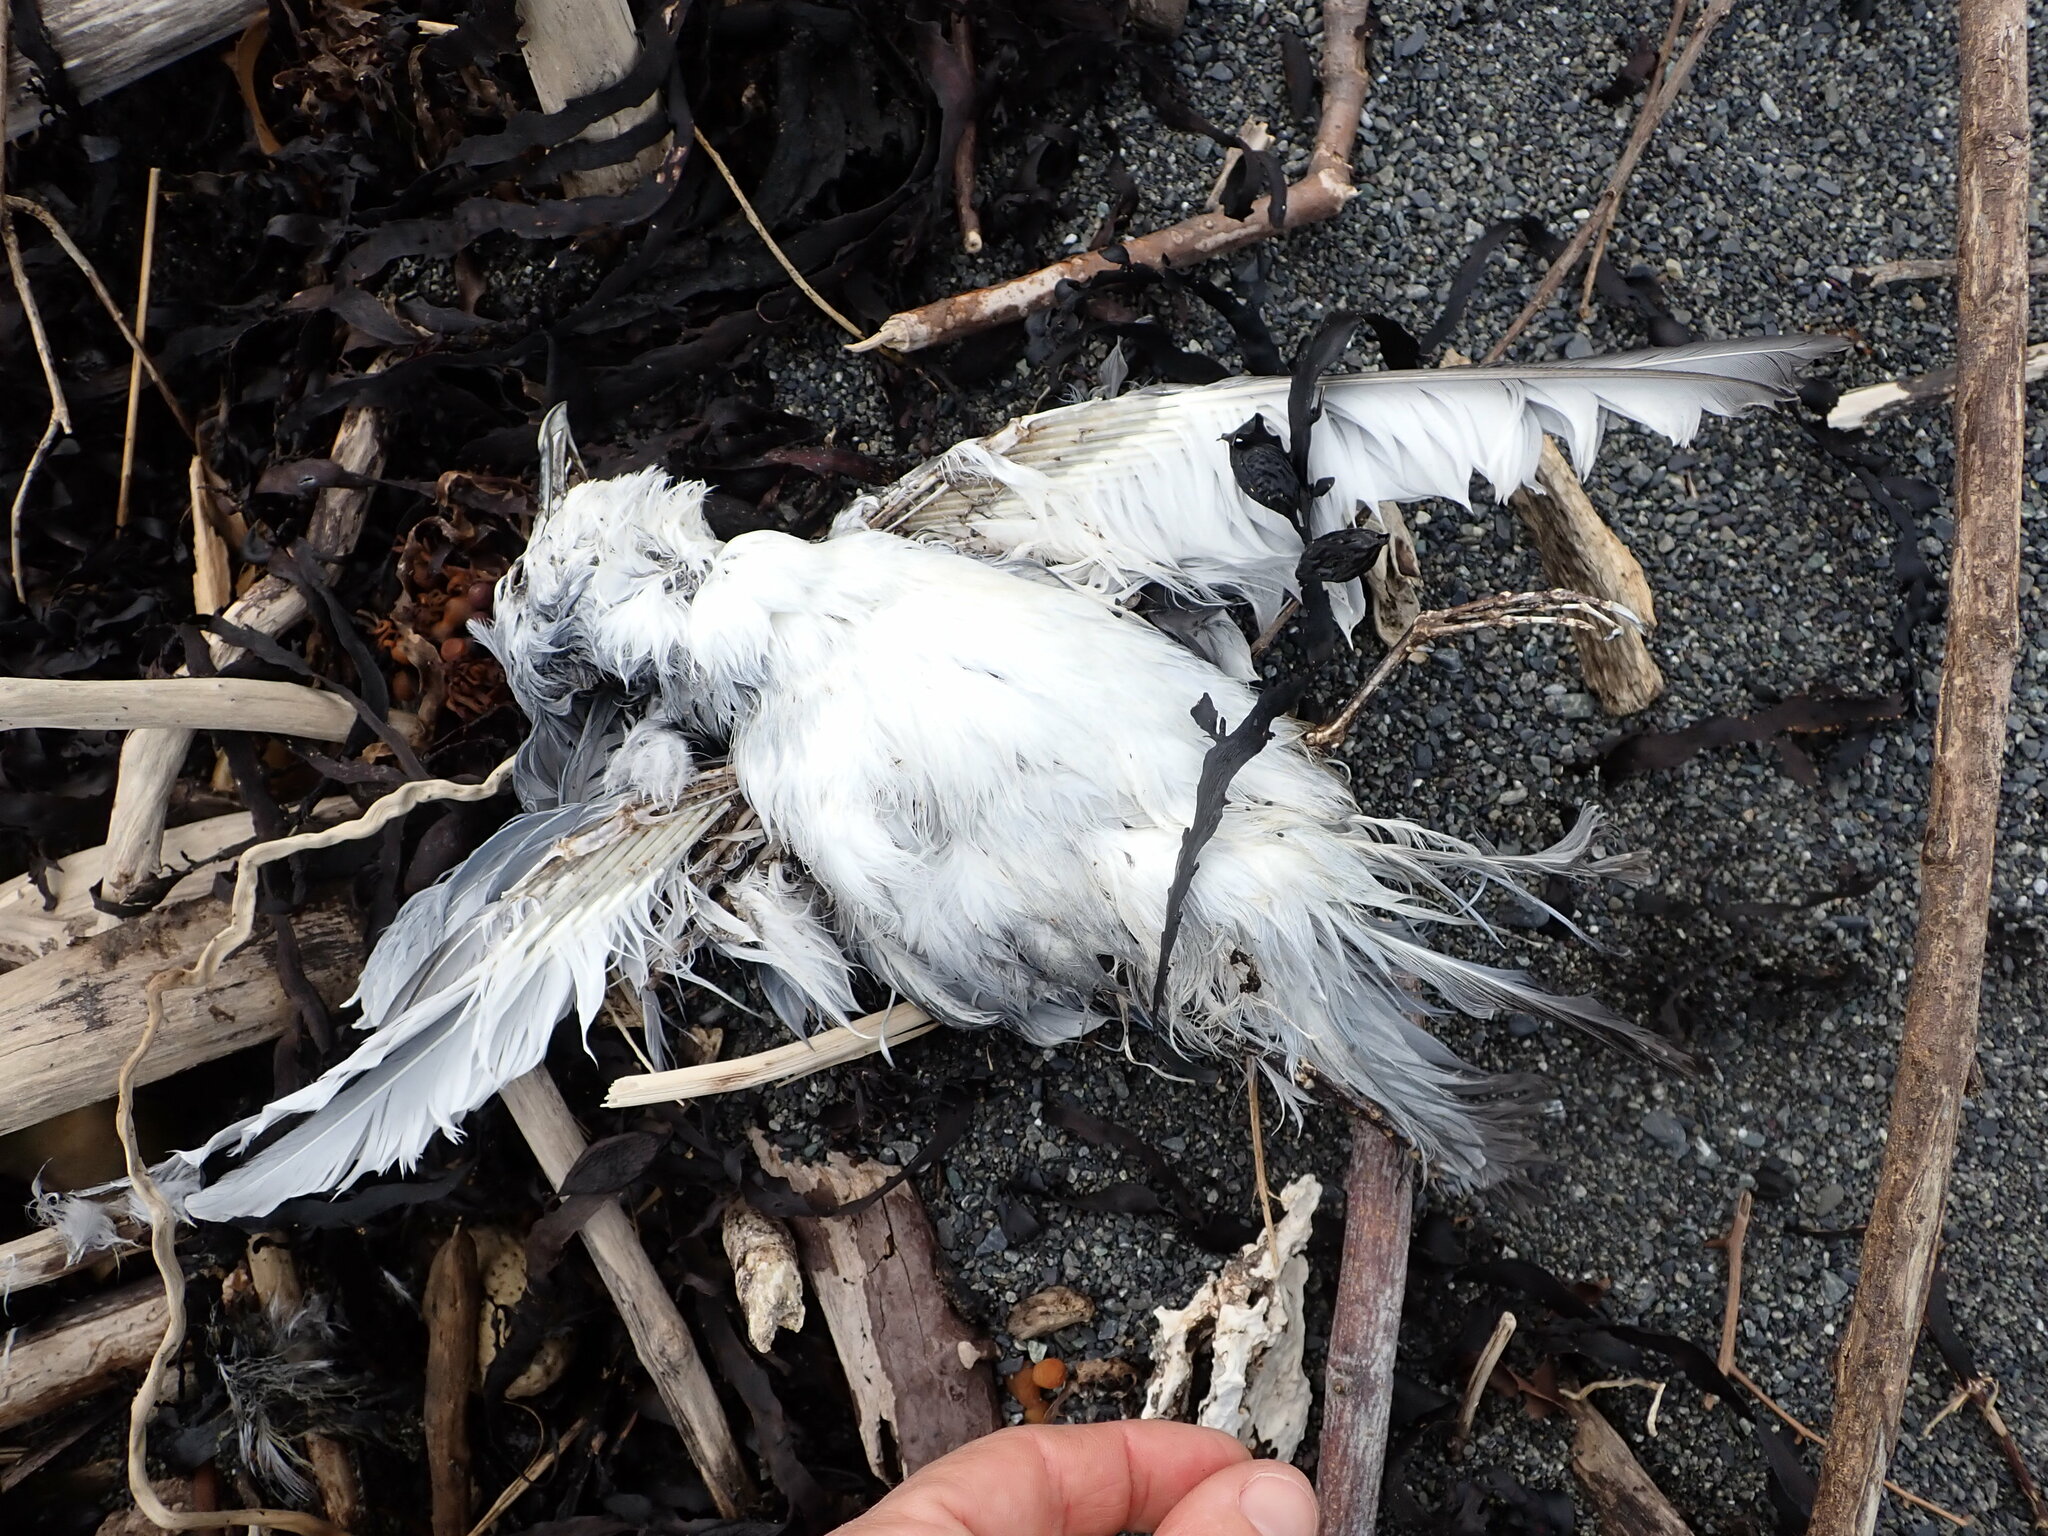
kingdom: Animalia
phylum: Chordata
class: Aves
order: Procellariiformes
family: Procellariidae
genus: Pachyptila
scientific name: Pachyptila turtur
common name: Fairy prion
